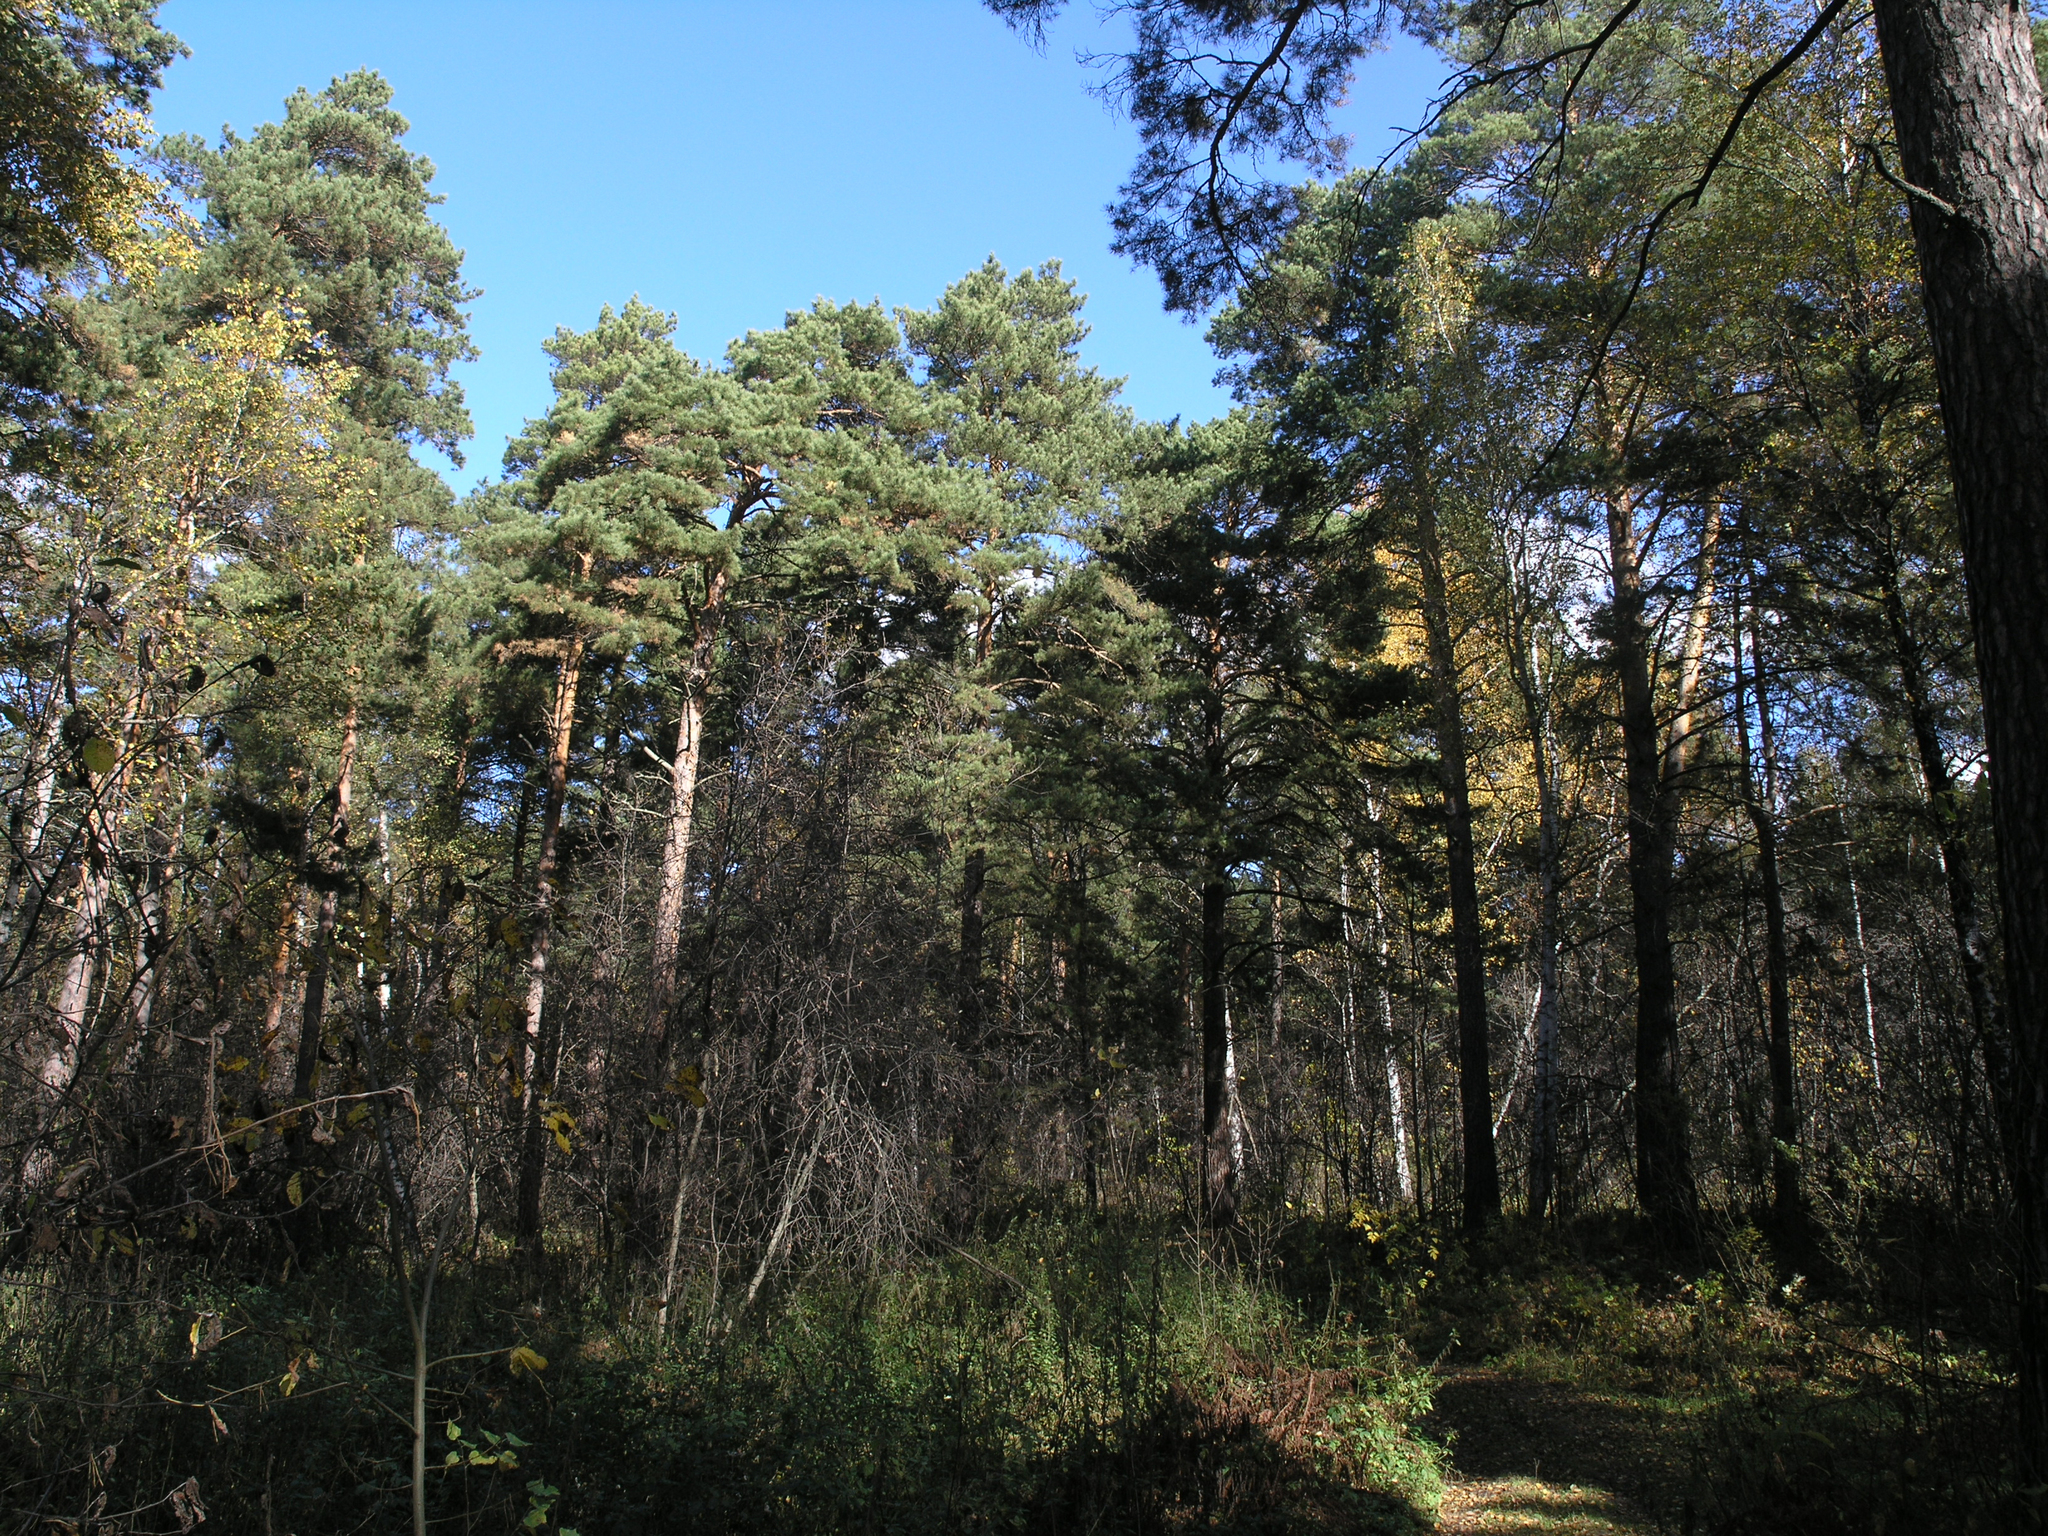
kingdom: Plantae
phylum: Tracheophyta
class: Pinopsida
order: Pinales
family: Pinaceae
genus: Pinus
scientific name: Pinus sylvestris
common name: Scots pine
